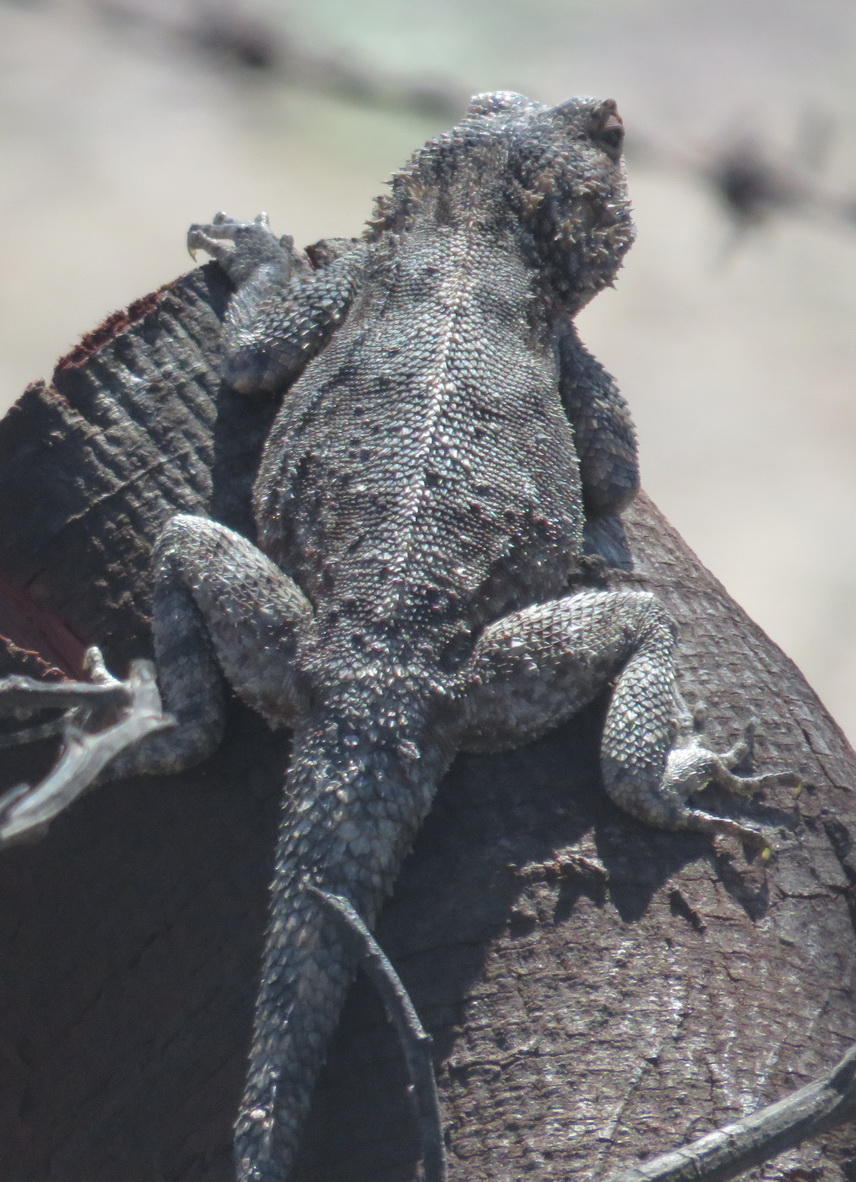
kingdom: Animalia
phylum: Chordata
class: Squamata
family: Agamidae
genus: Agama
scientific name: Agama atra
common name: Southern african rock agama
